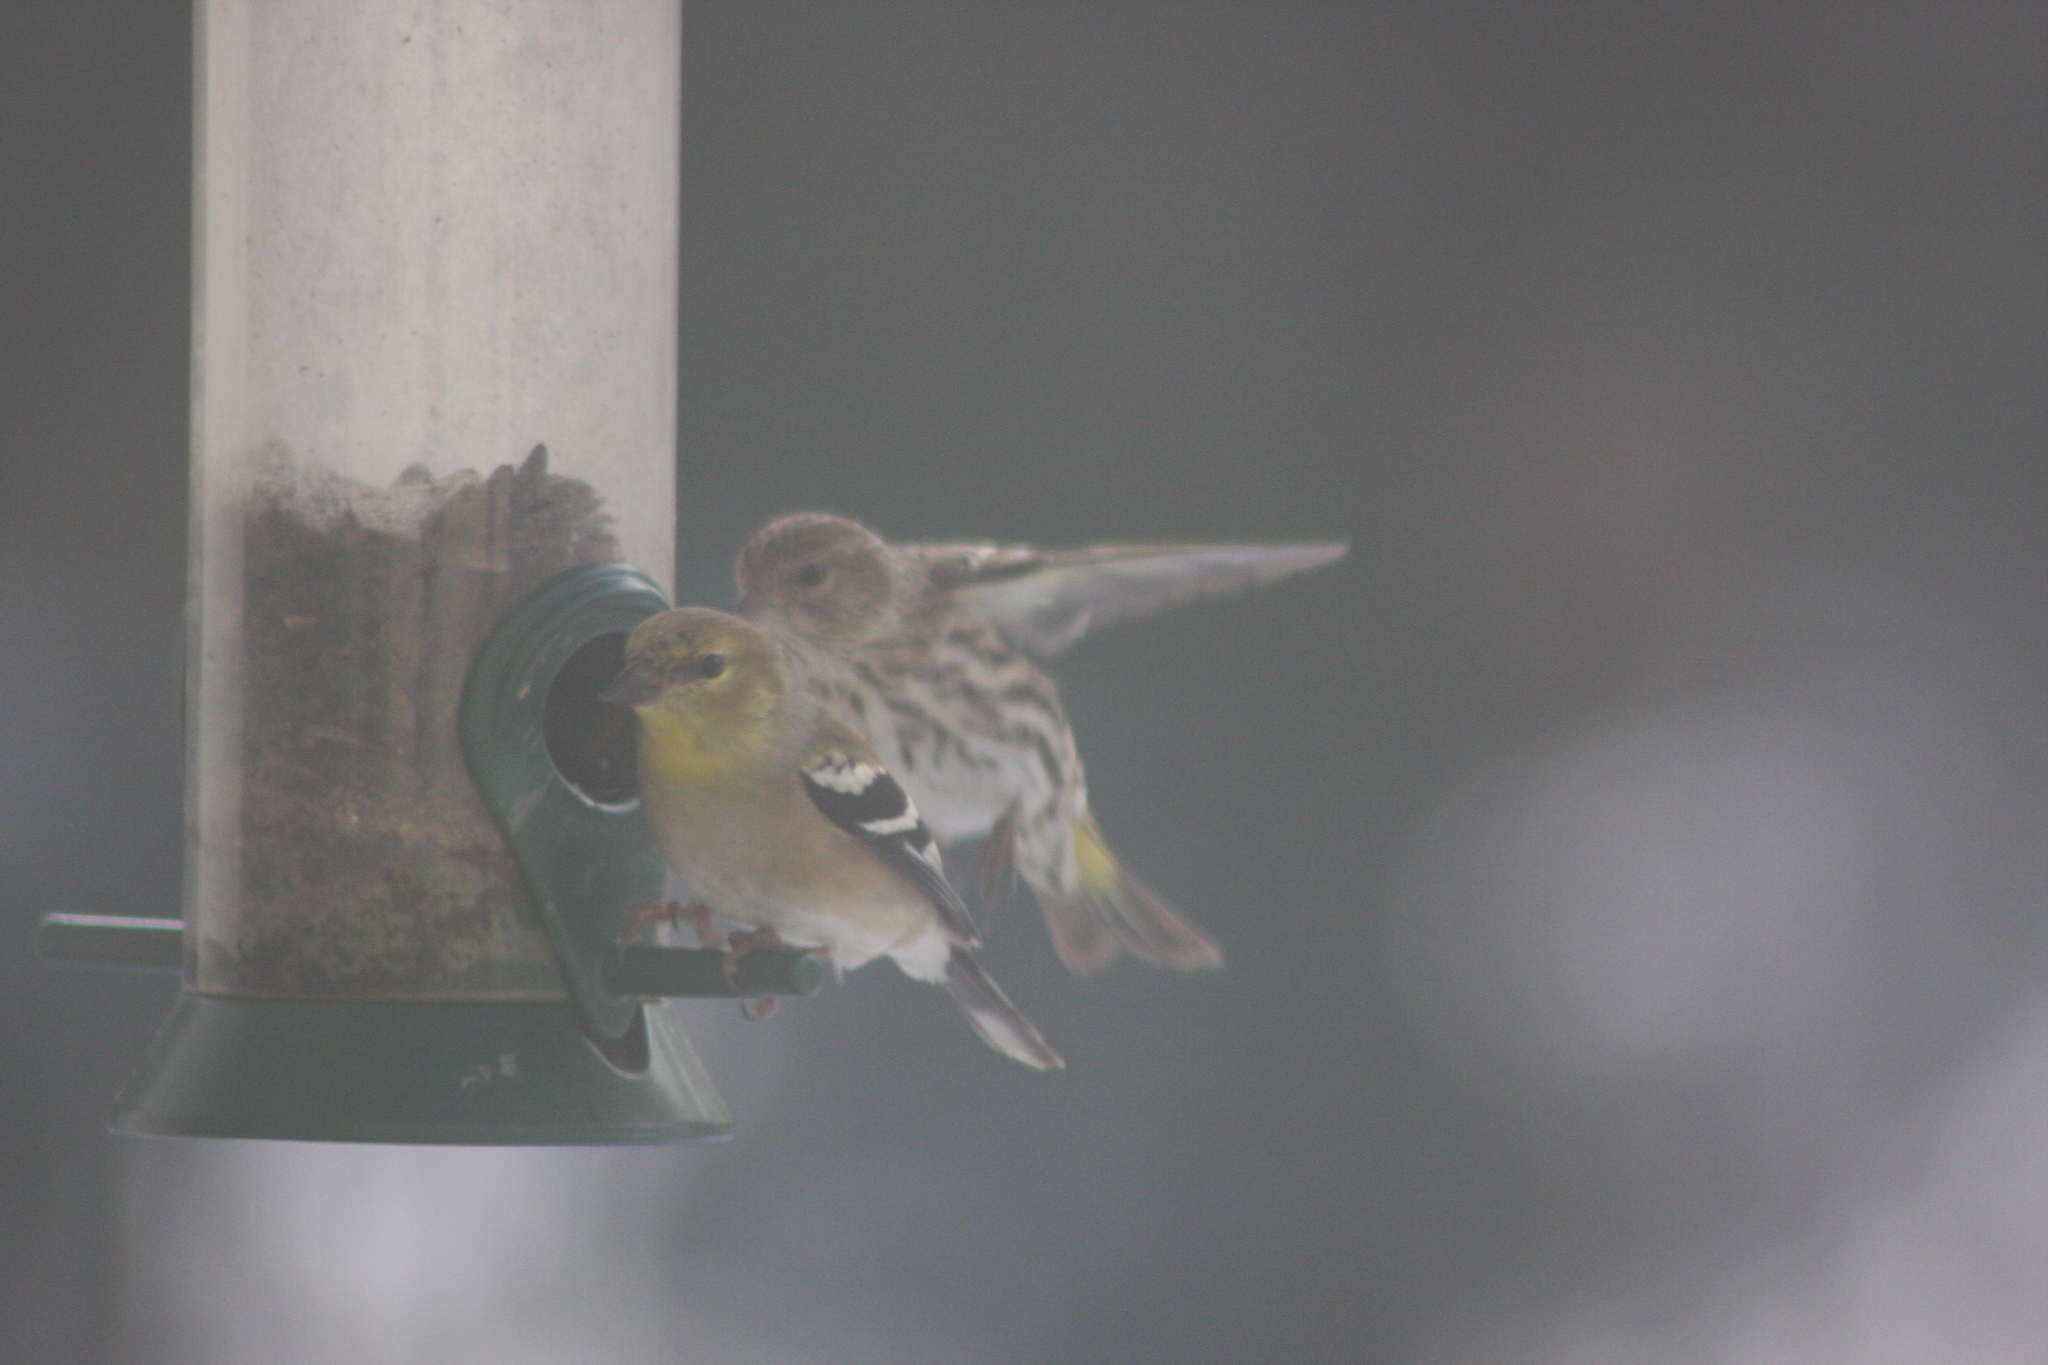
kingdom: Animalia
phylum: Chordata
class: Aves
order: Passeriformes
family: Fringillidae
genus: Spinus
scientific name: Spinus tristis
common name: American goldfinch
